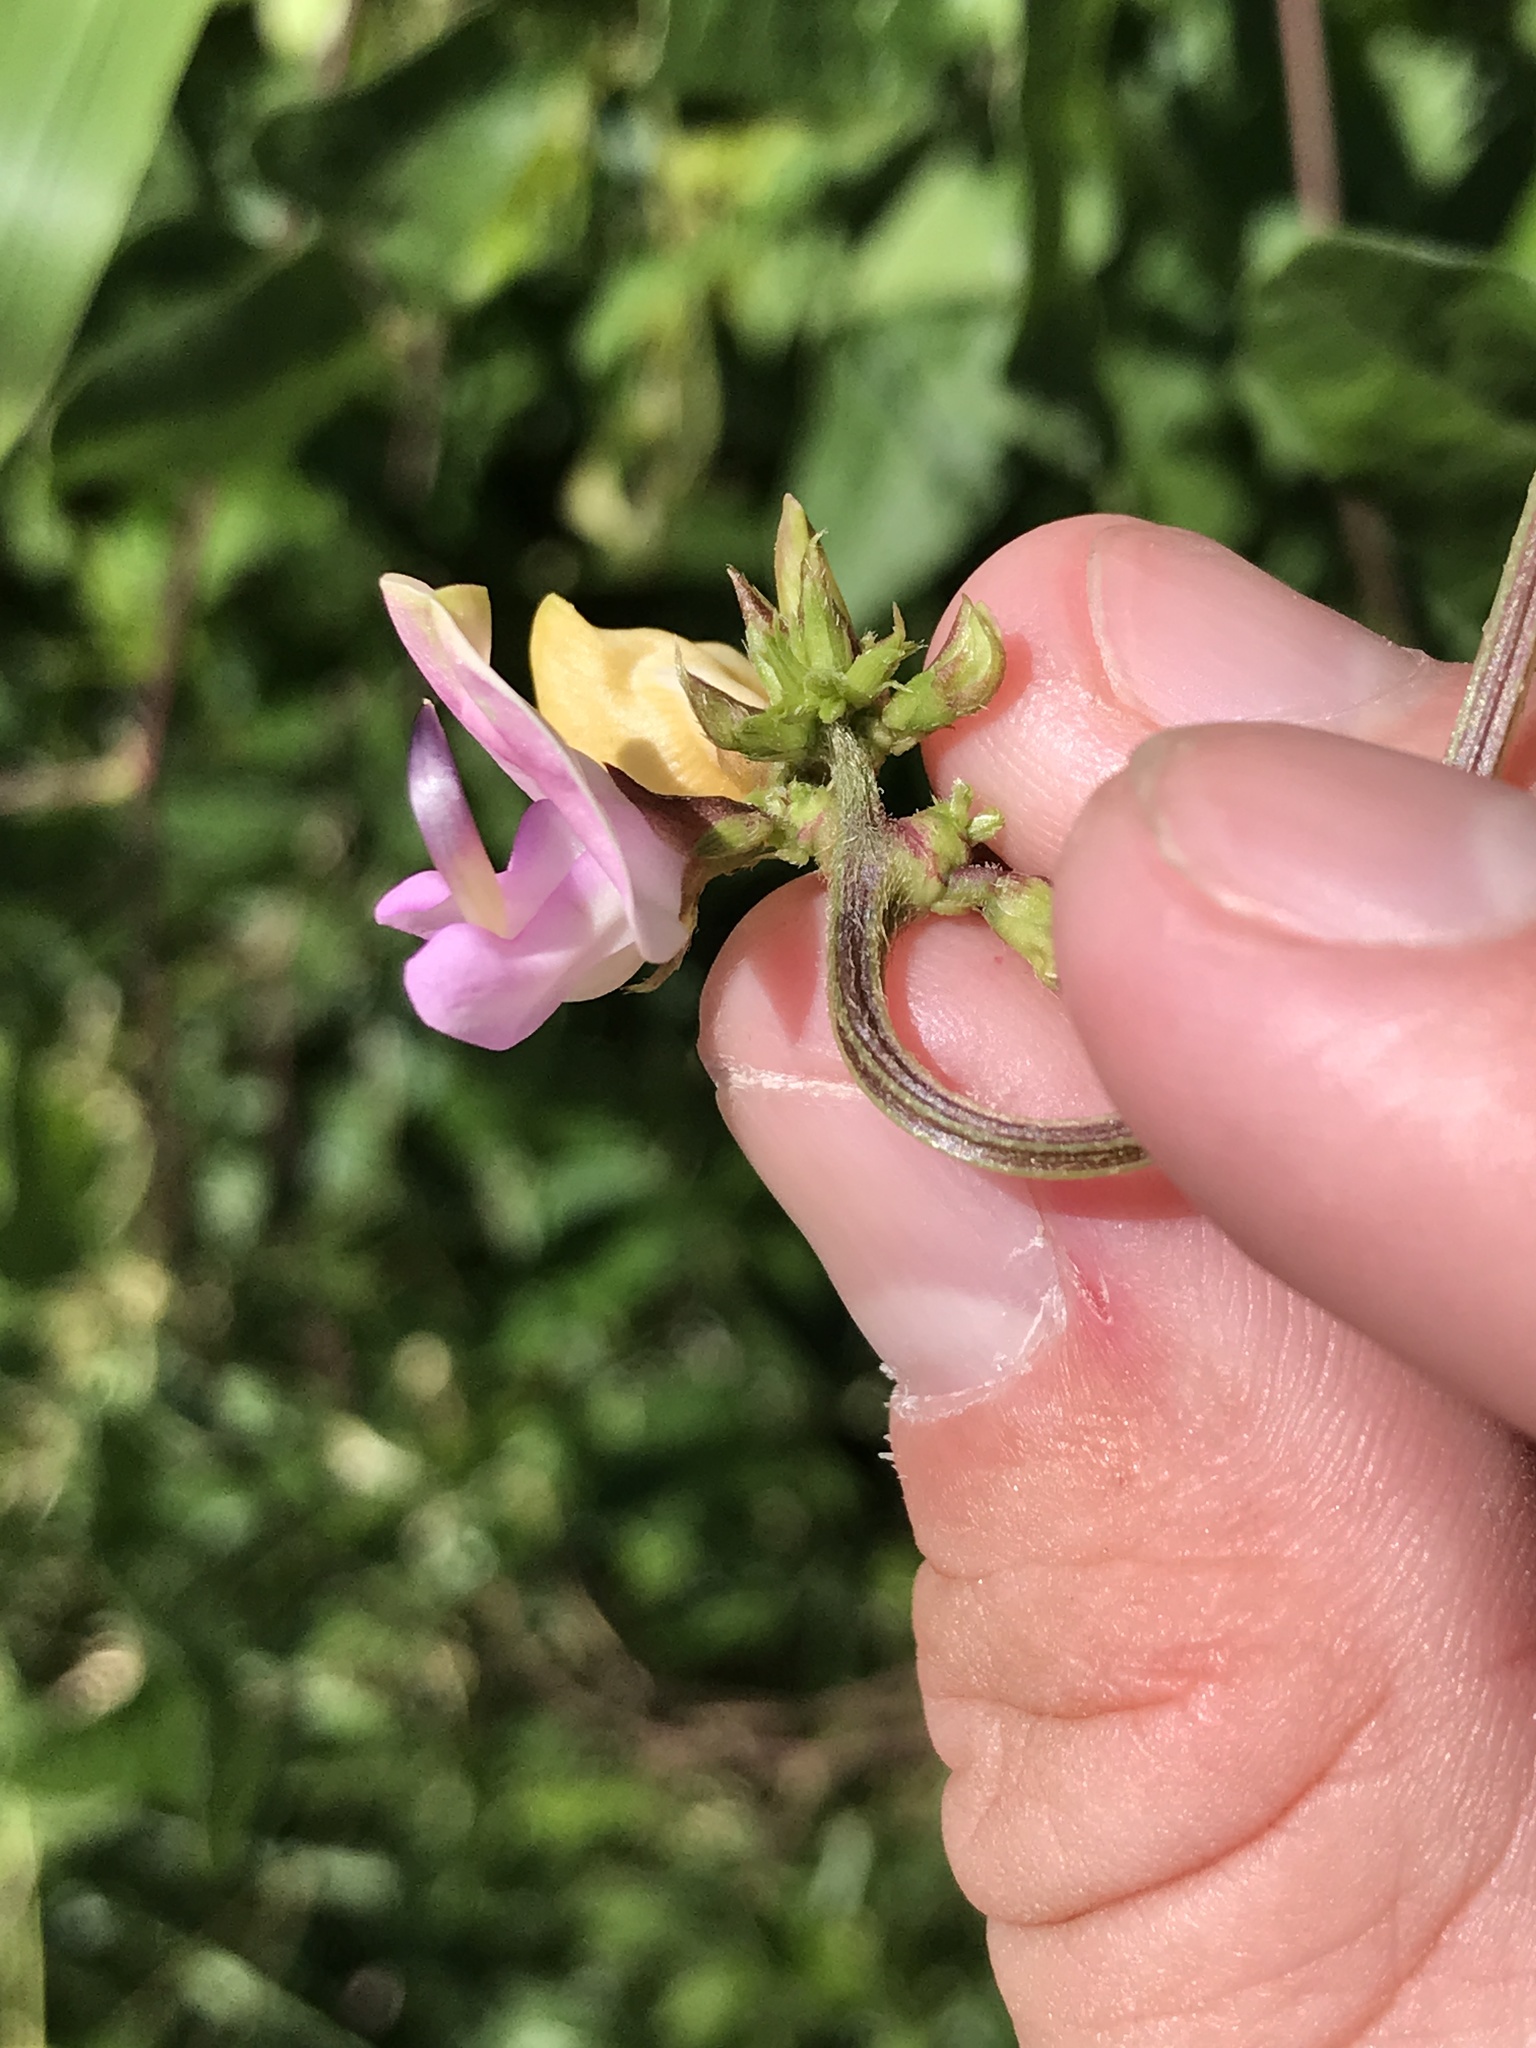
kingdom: Plantae
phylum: Tracheophyta
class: Magnoliopsida
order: Fabales
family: Fabaceae
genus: Strophostyles
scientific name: Strophostyles helvola
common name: Trailing wild bean
